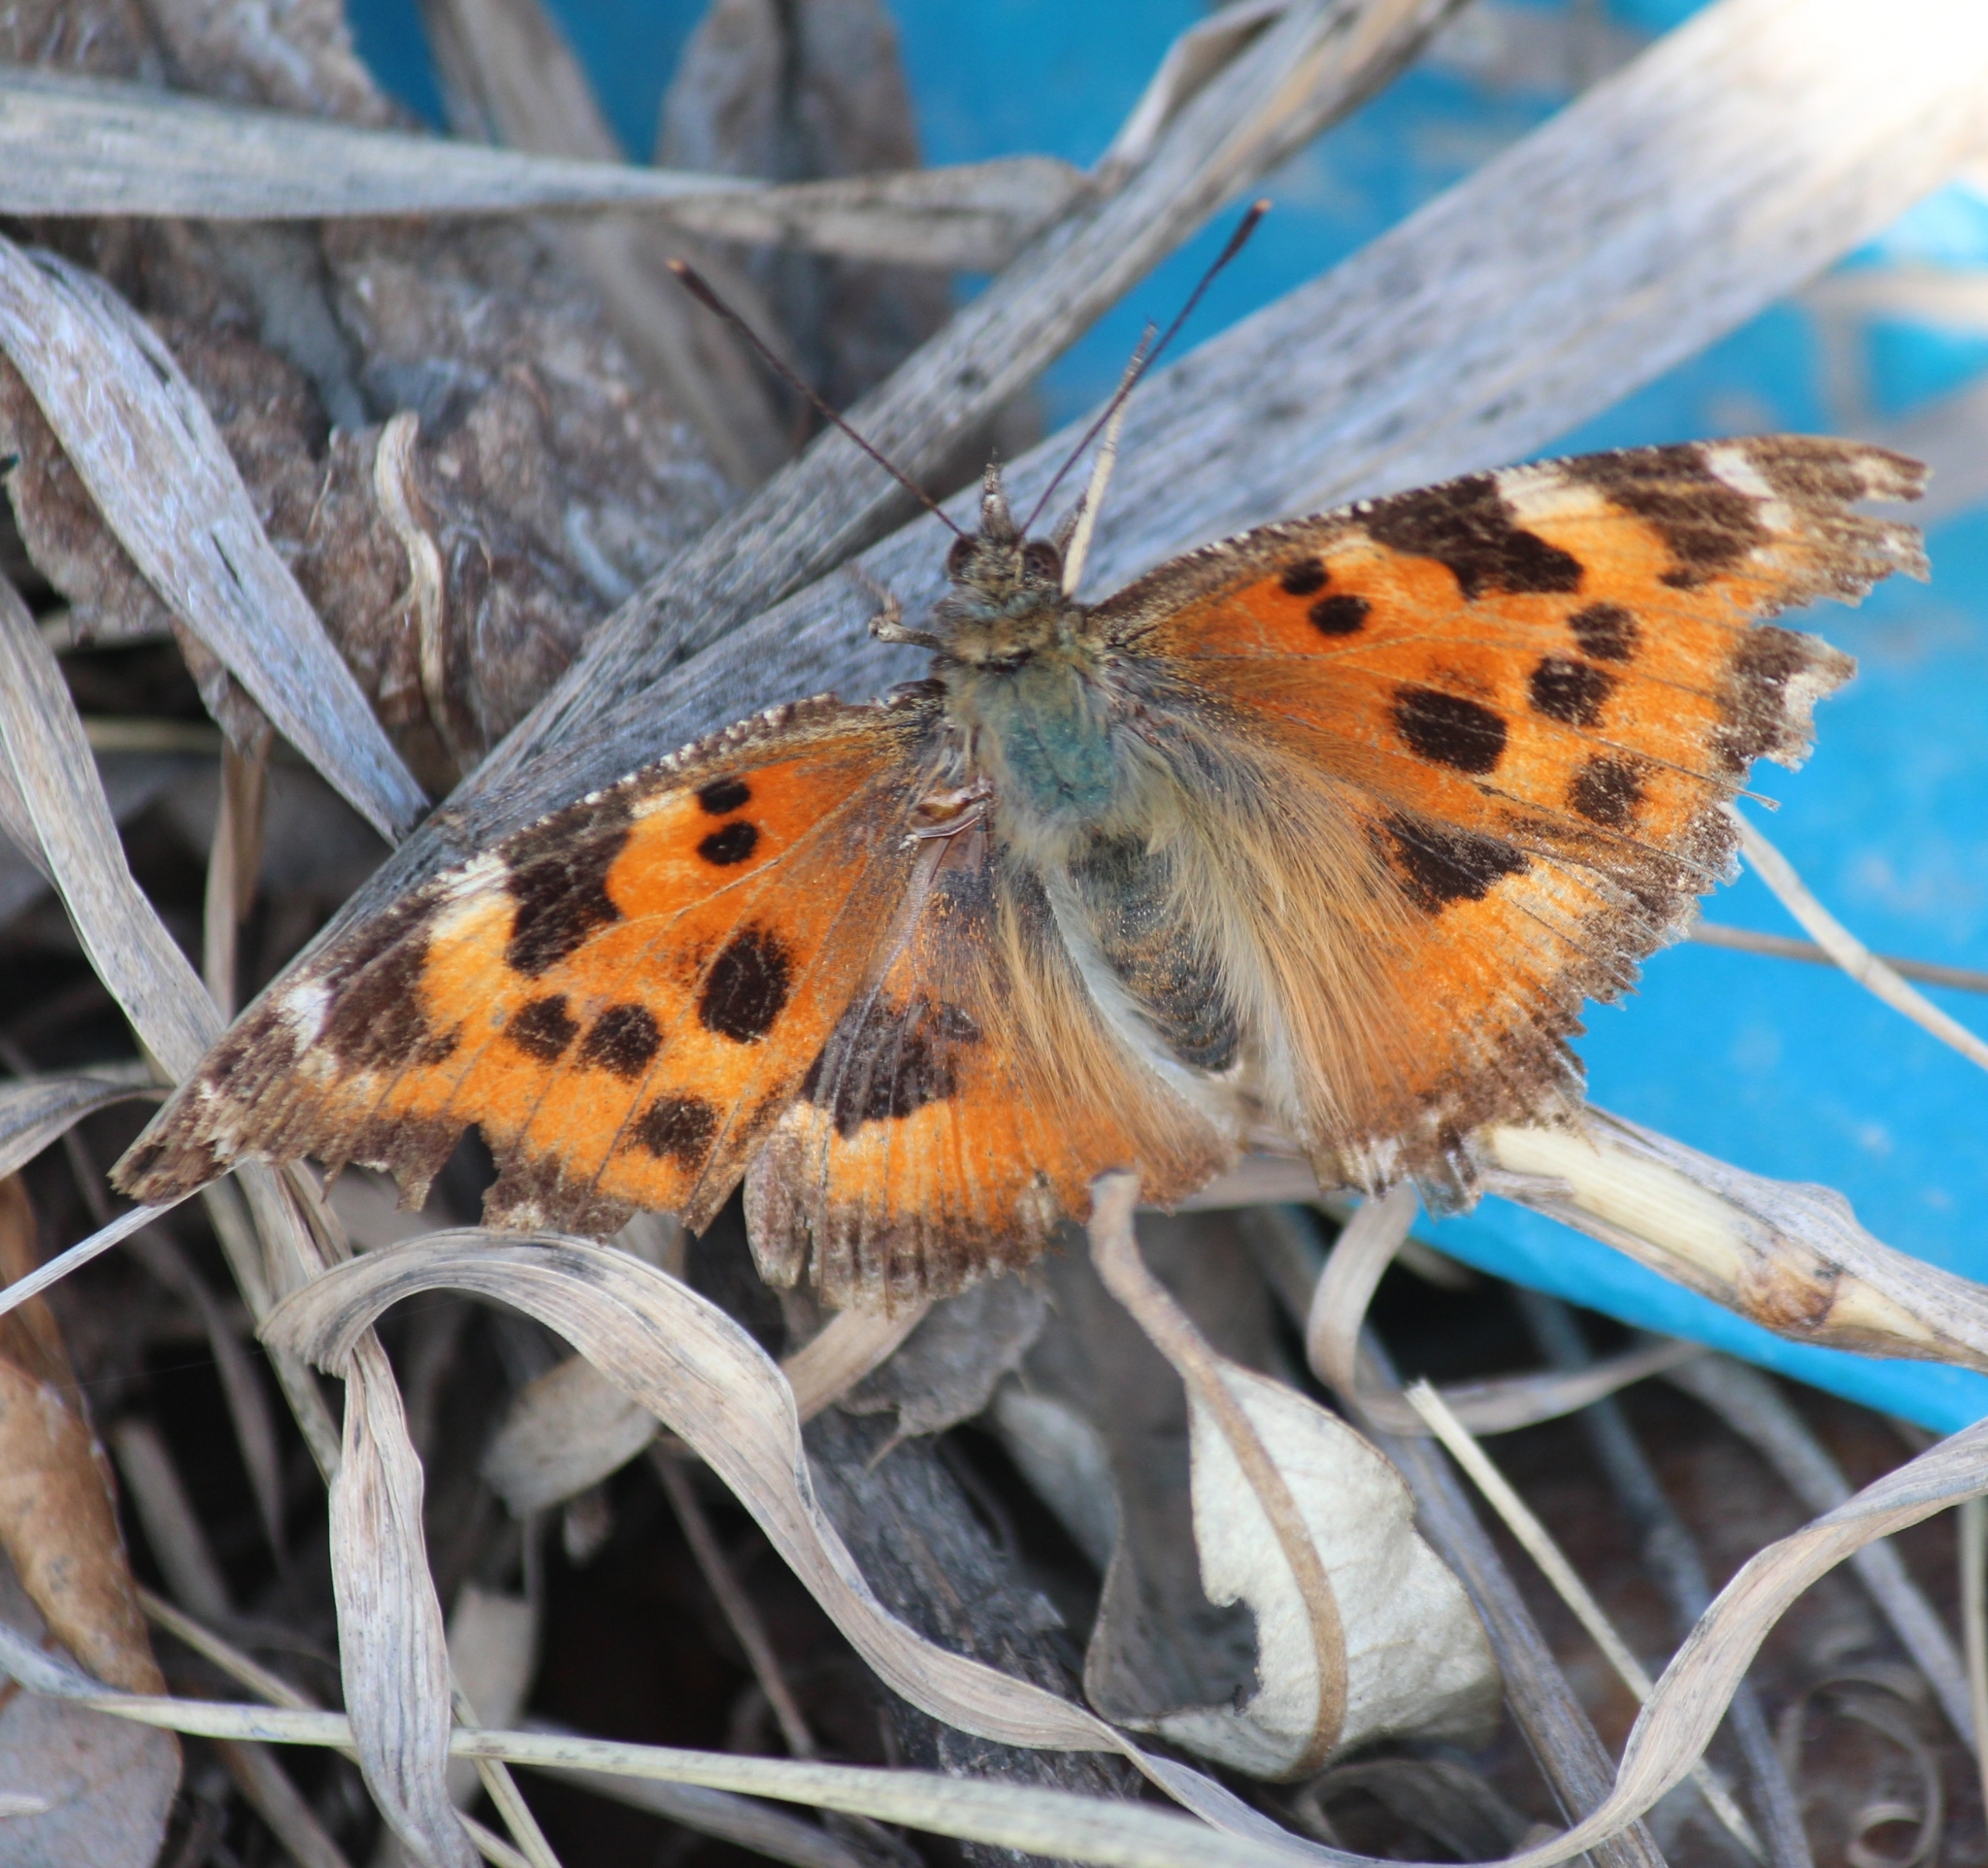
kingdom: Animalia
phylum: Arthropoda
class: Insecta
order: Lepidoptera
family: Nymphalidae
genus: Nymphalis
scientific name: Nymphalis xanthomelas
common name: Scarce tortoiseshell
